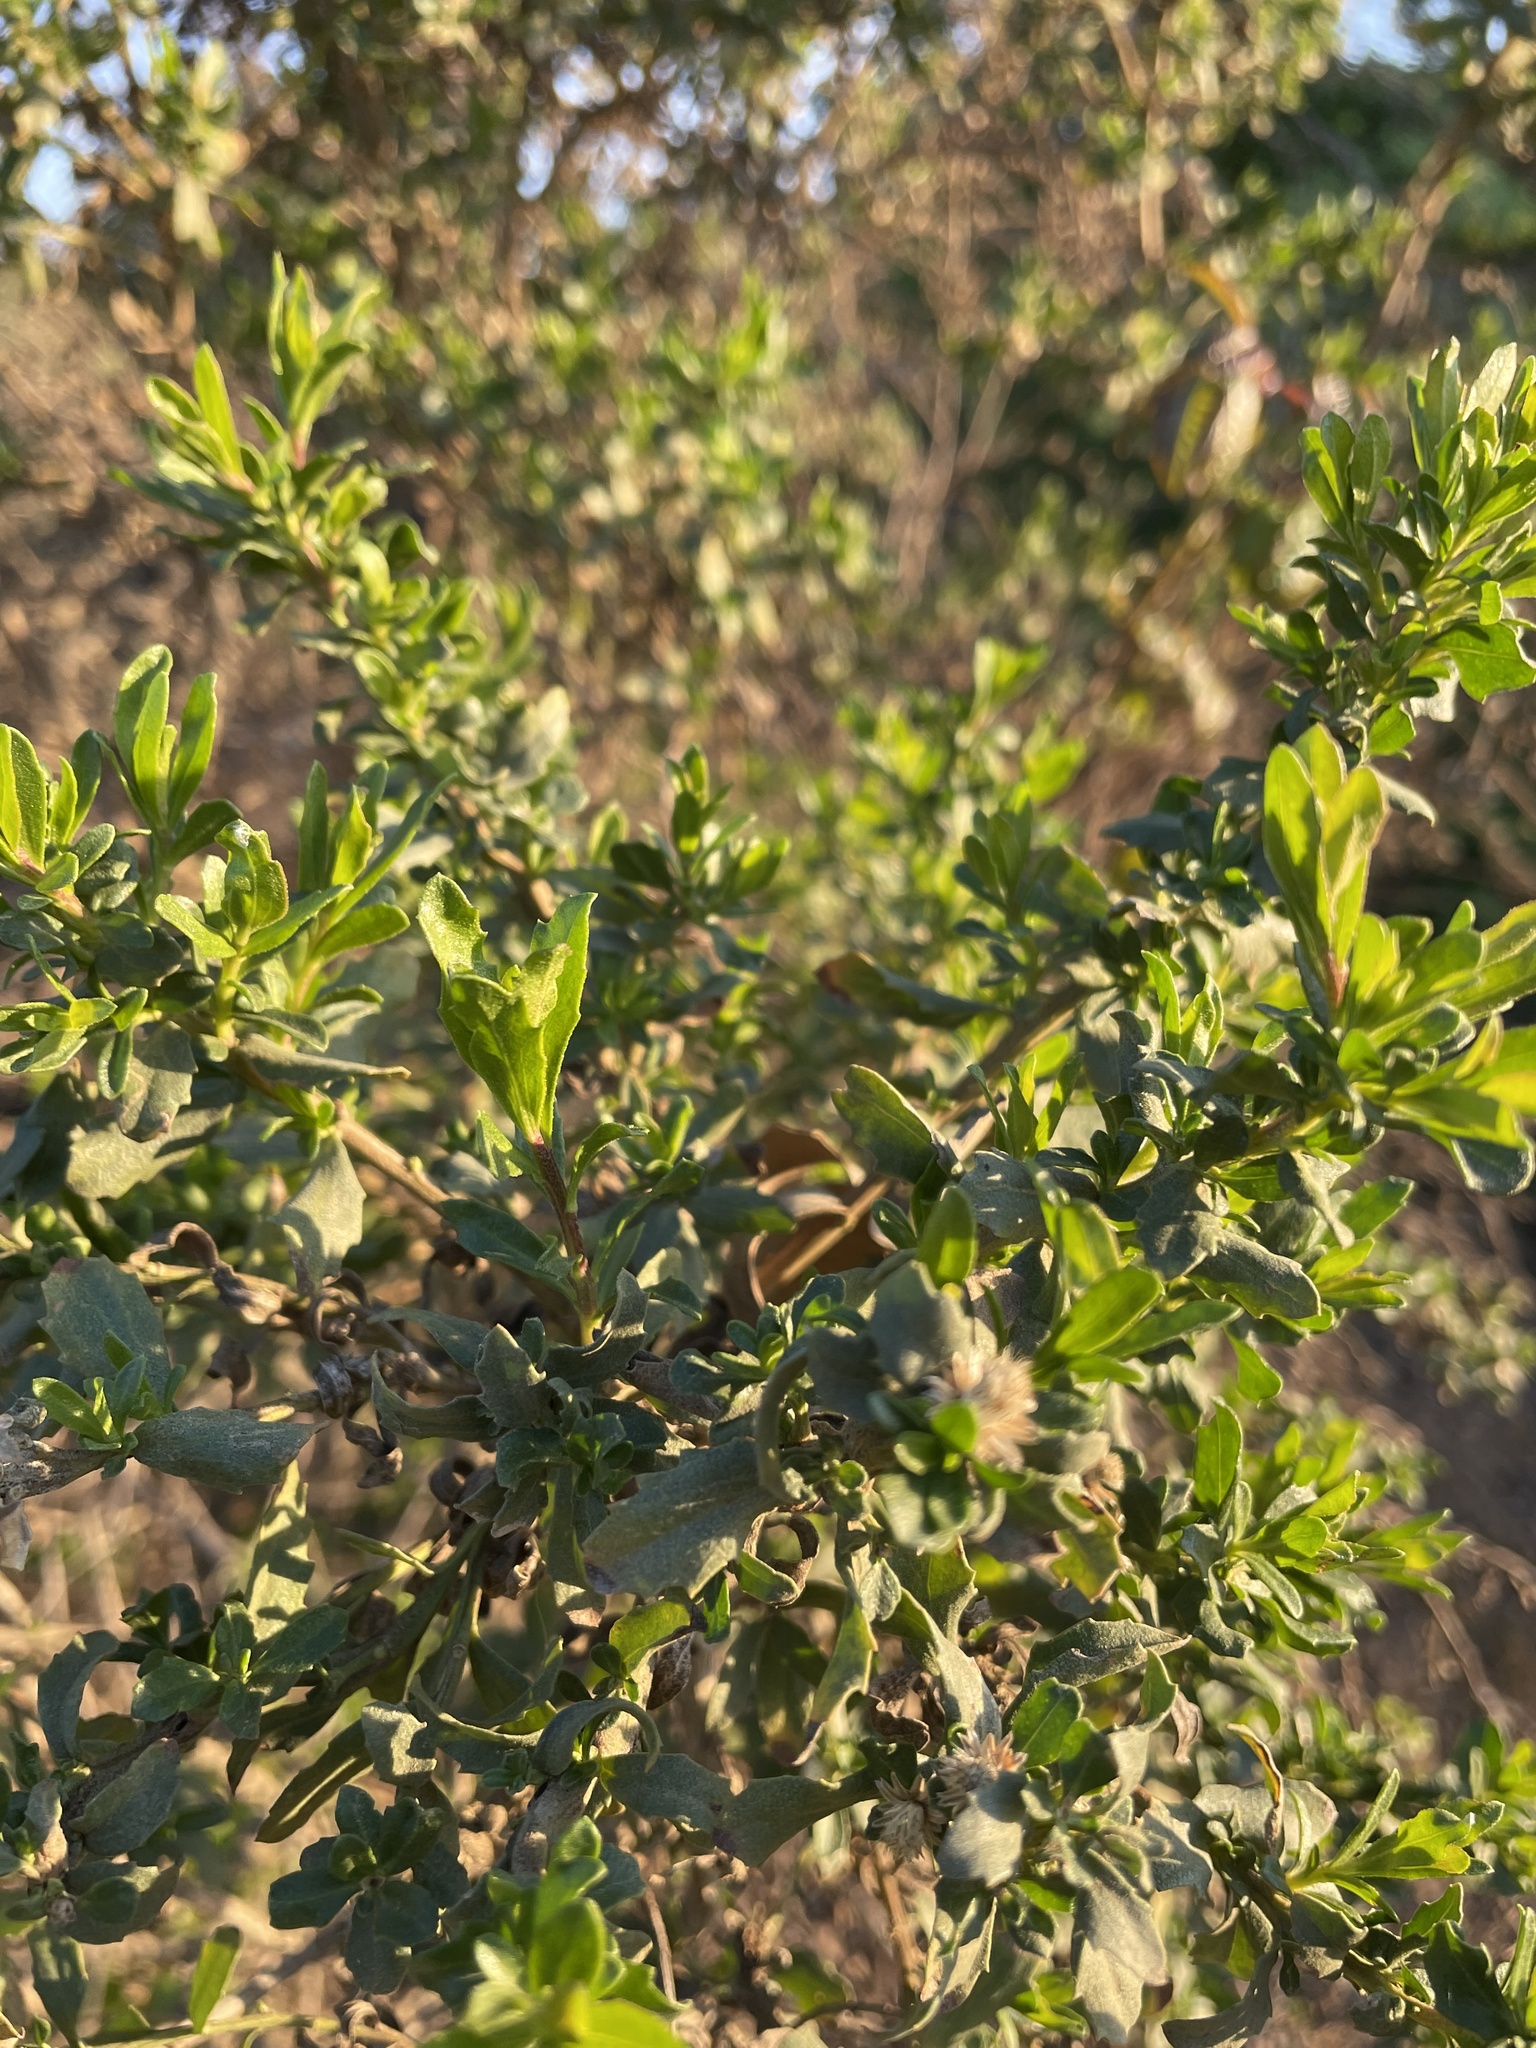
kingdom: Plantae
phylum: Tracheophyta
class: Magnoliopsida
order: Asterales
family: Asteraceae
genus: Baccharis
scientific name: Baccharis pilularis
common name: Coyotebrush
